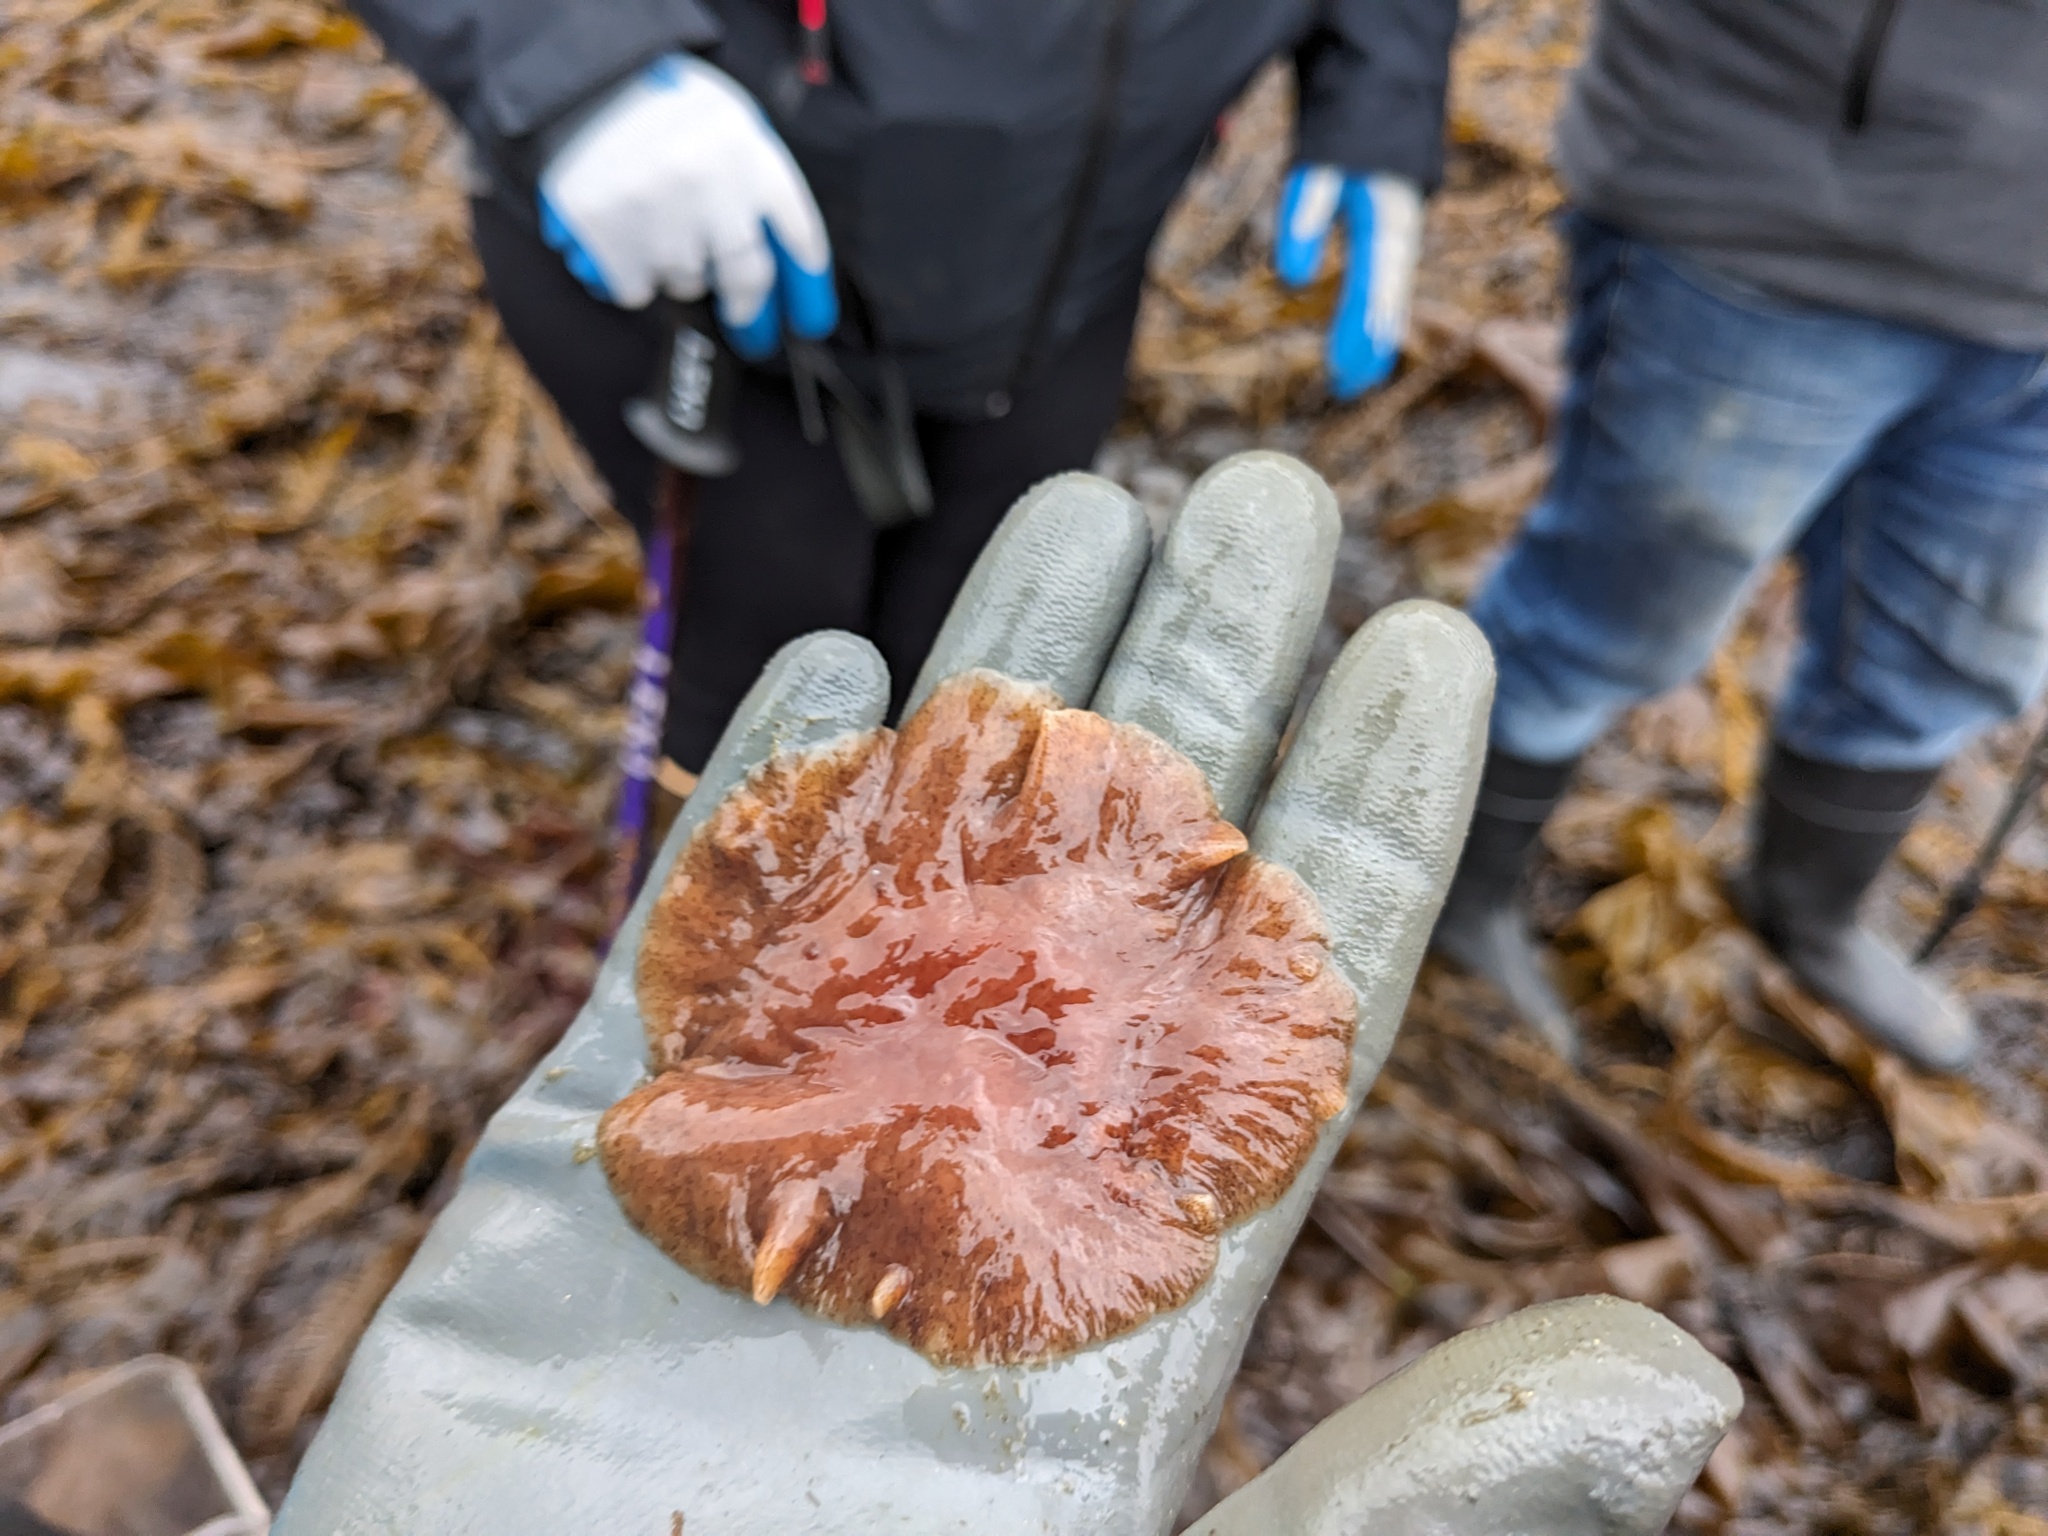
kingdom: Animalia
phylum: Platyhelminthes
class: Turbellaria
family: Callioplanidae
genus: Kaburakia
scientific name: Kaburakia excelsa
